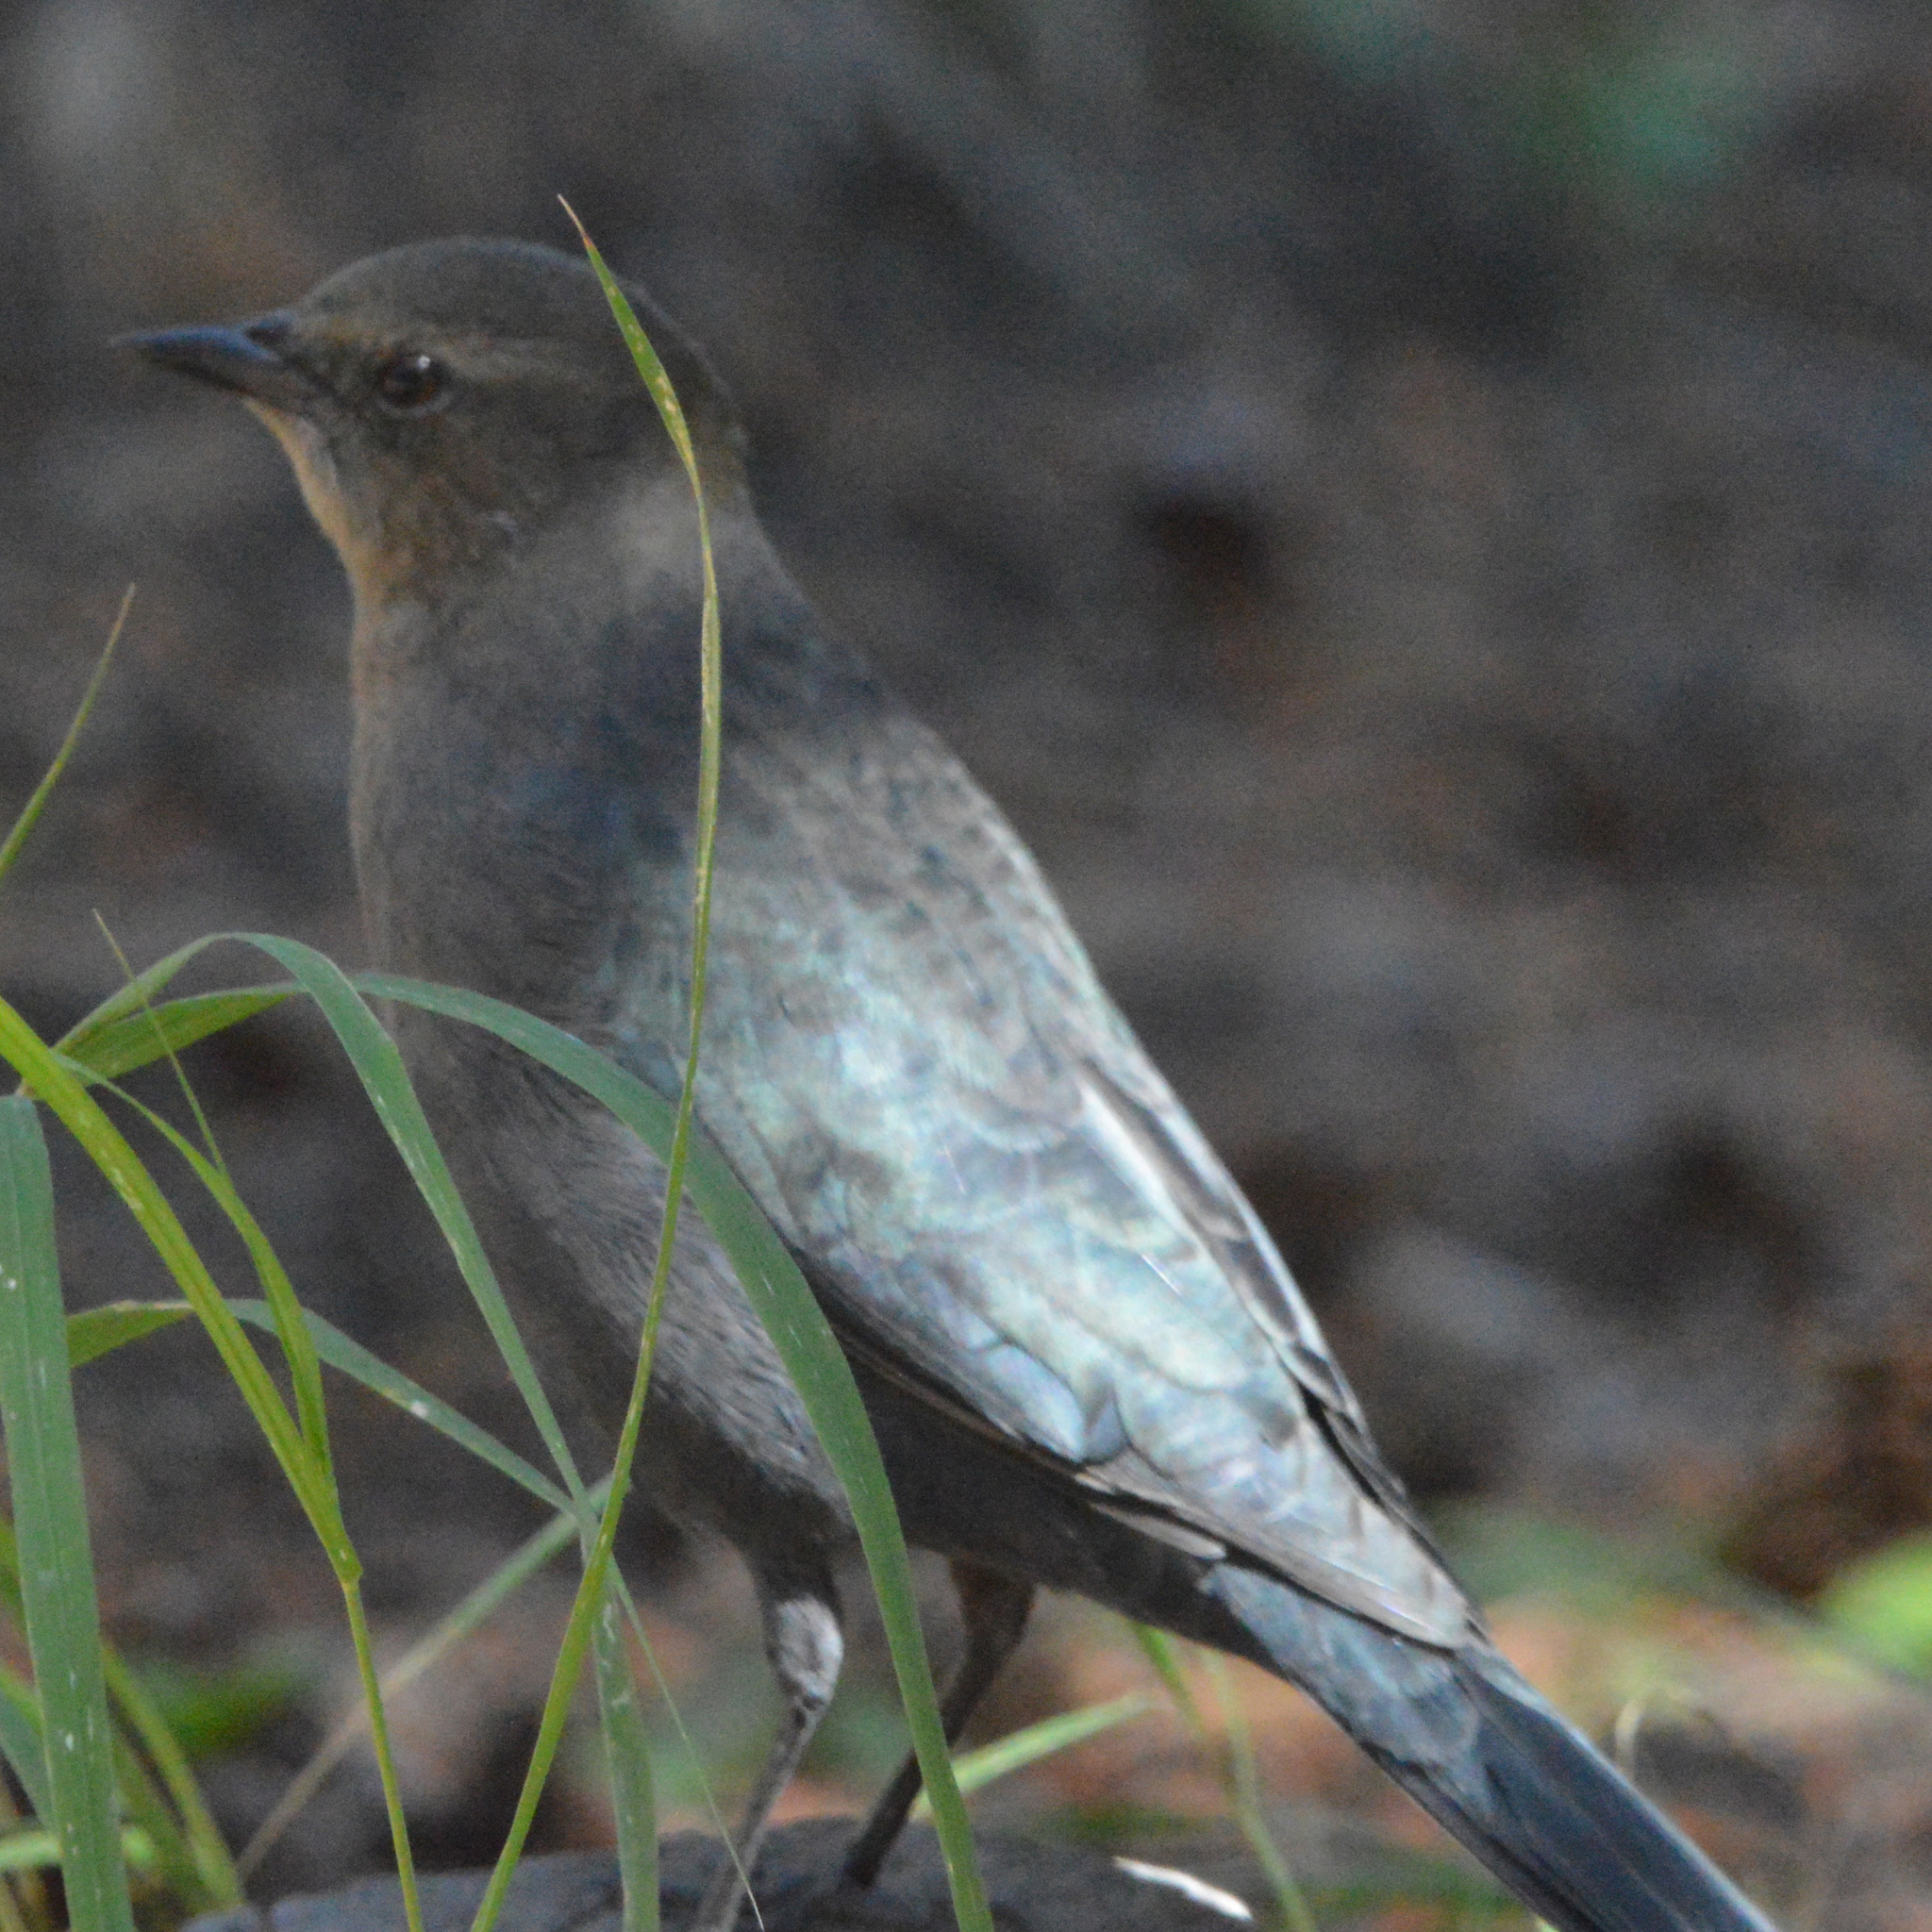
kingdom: Animalia
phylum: Chordata
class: Aves
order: Passeriformes
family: Icteridae
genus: Euphagus
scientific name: Euphagus cyanocephalus
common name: Brewer's blackbird
